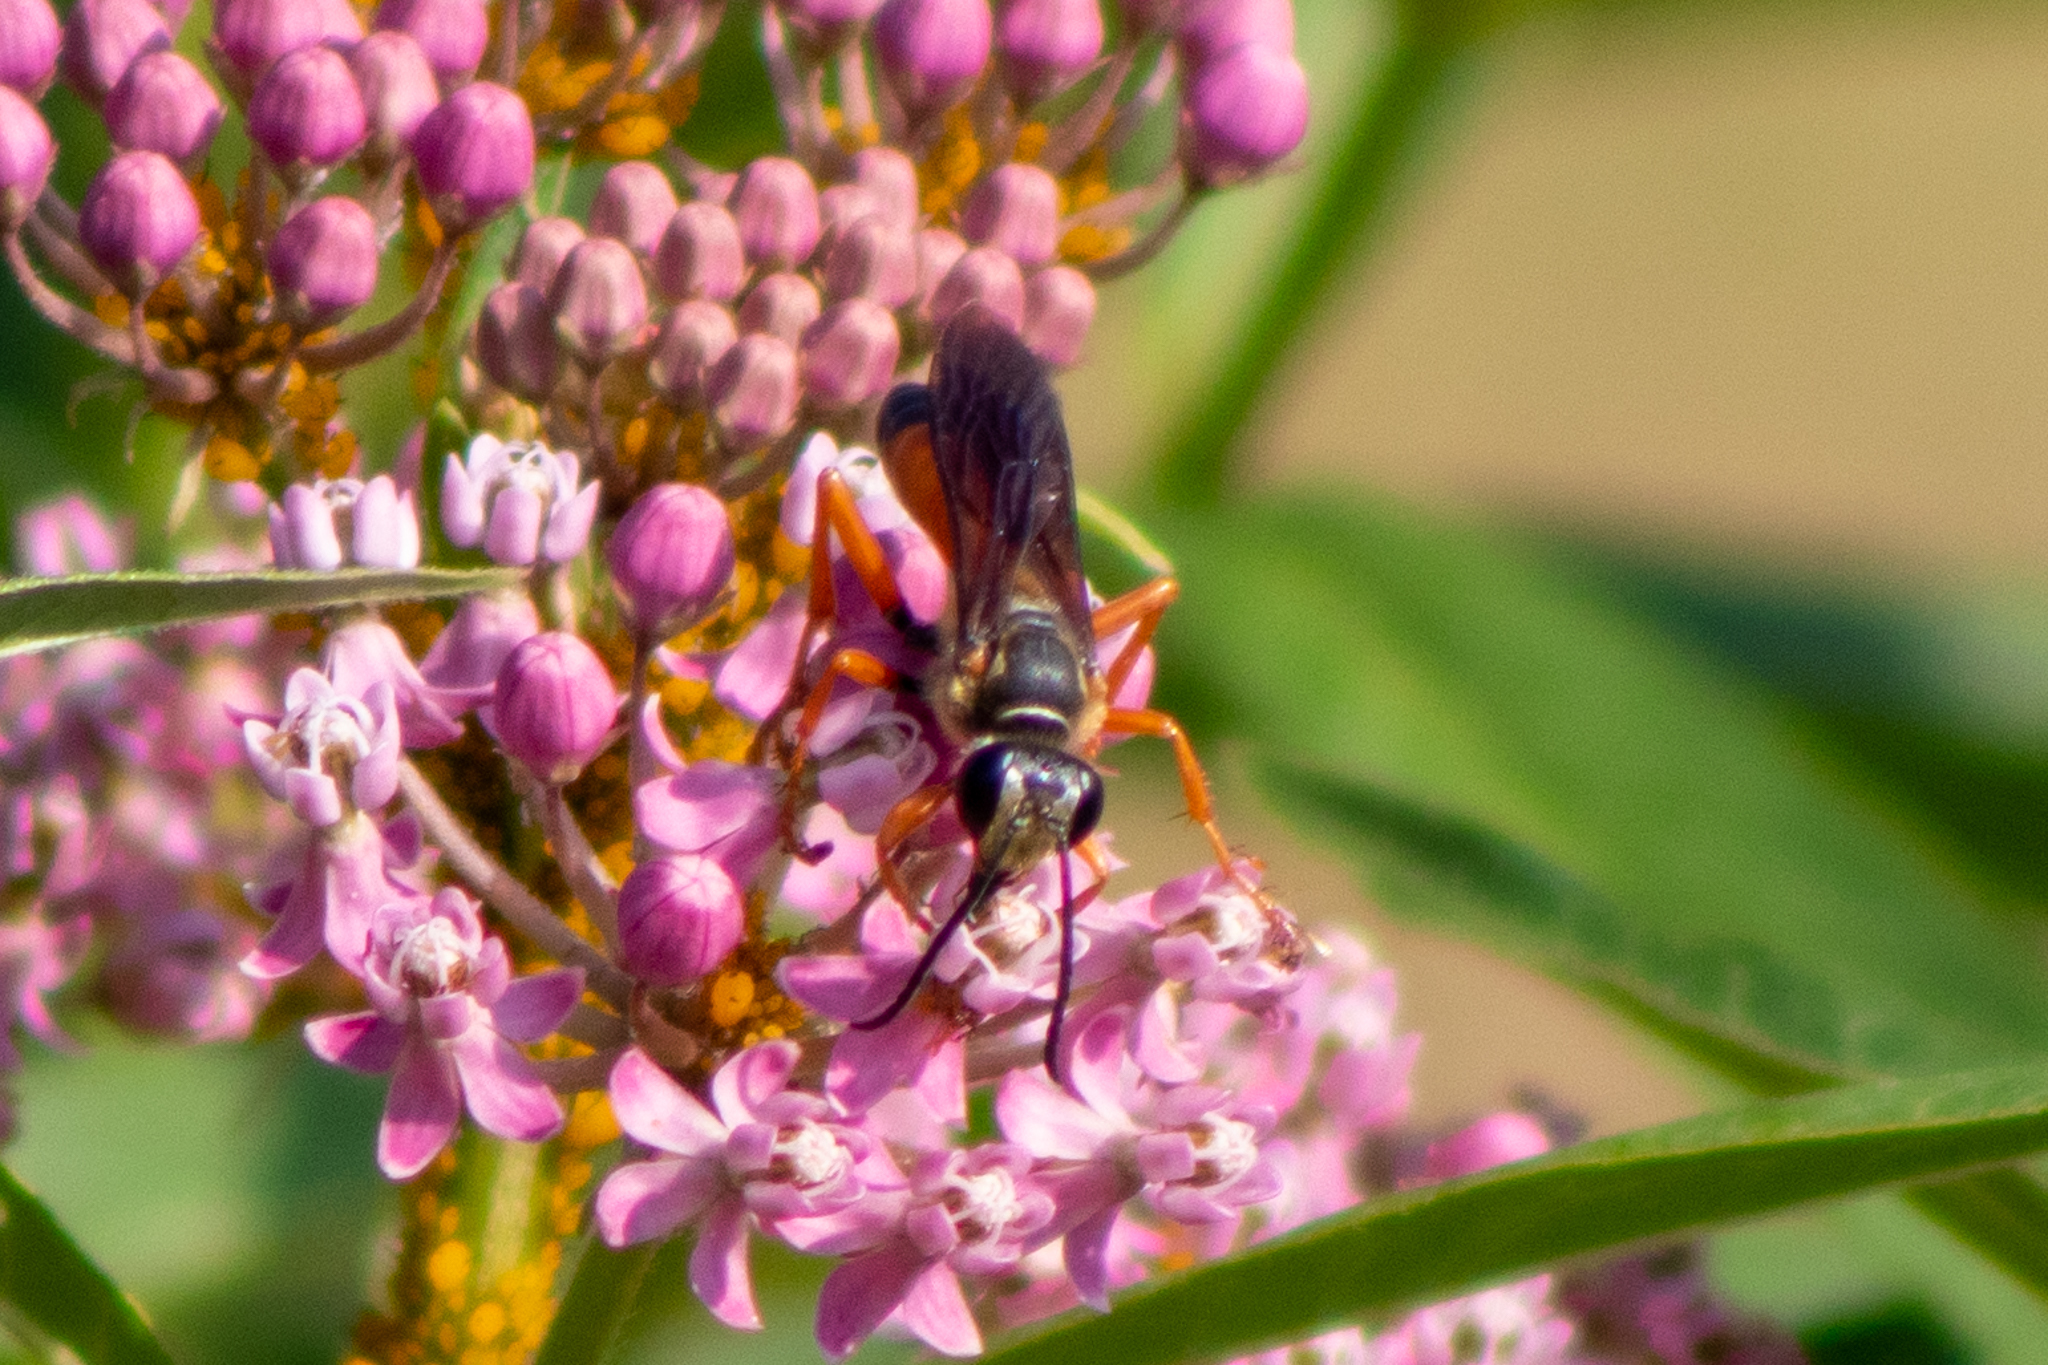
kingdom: Animalia
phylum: Arthropoda
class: Insecta
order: Hymenoptera
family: Sphecidae
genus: Sphex
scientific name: Sphex ichneumoneus
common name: Great golden digger wasp
